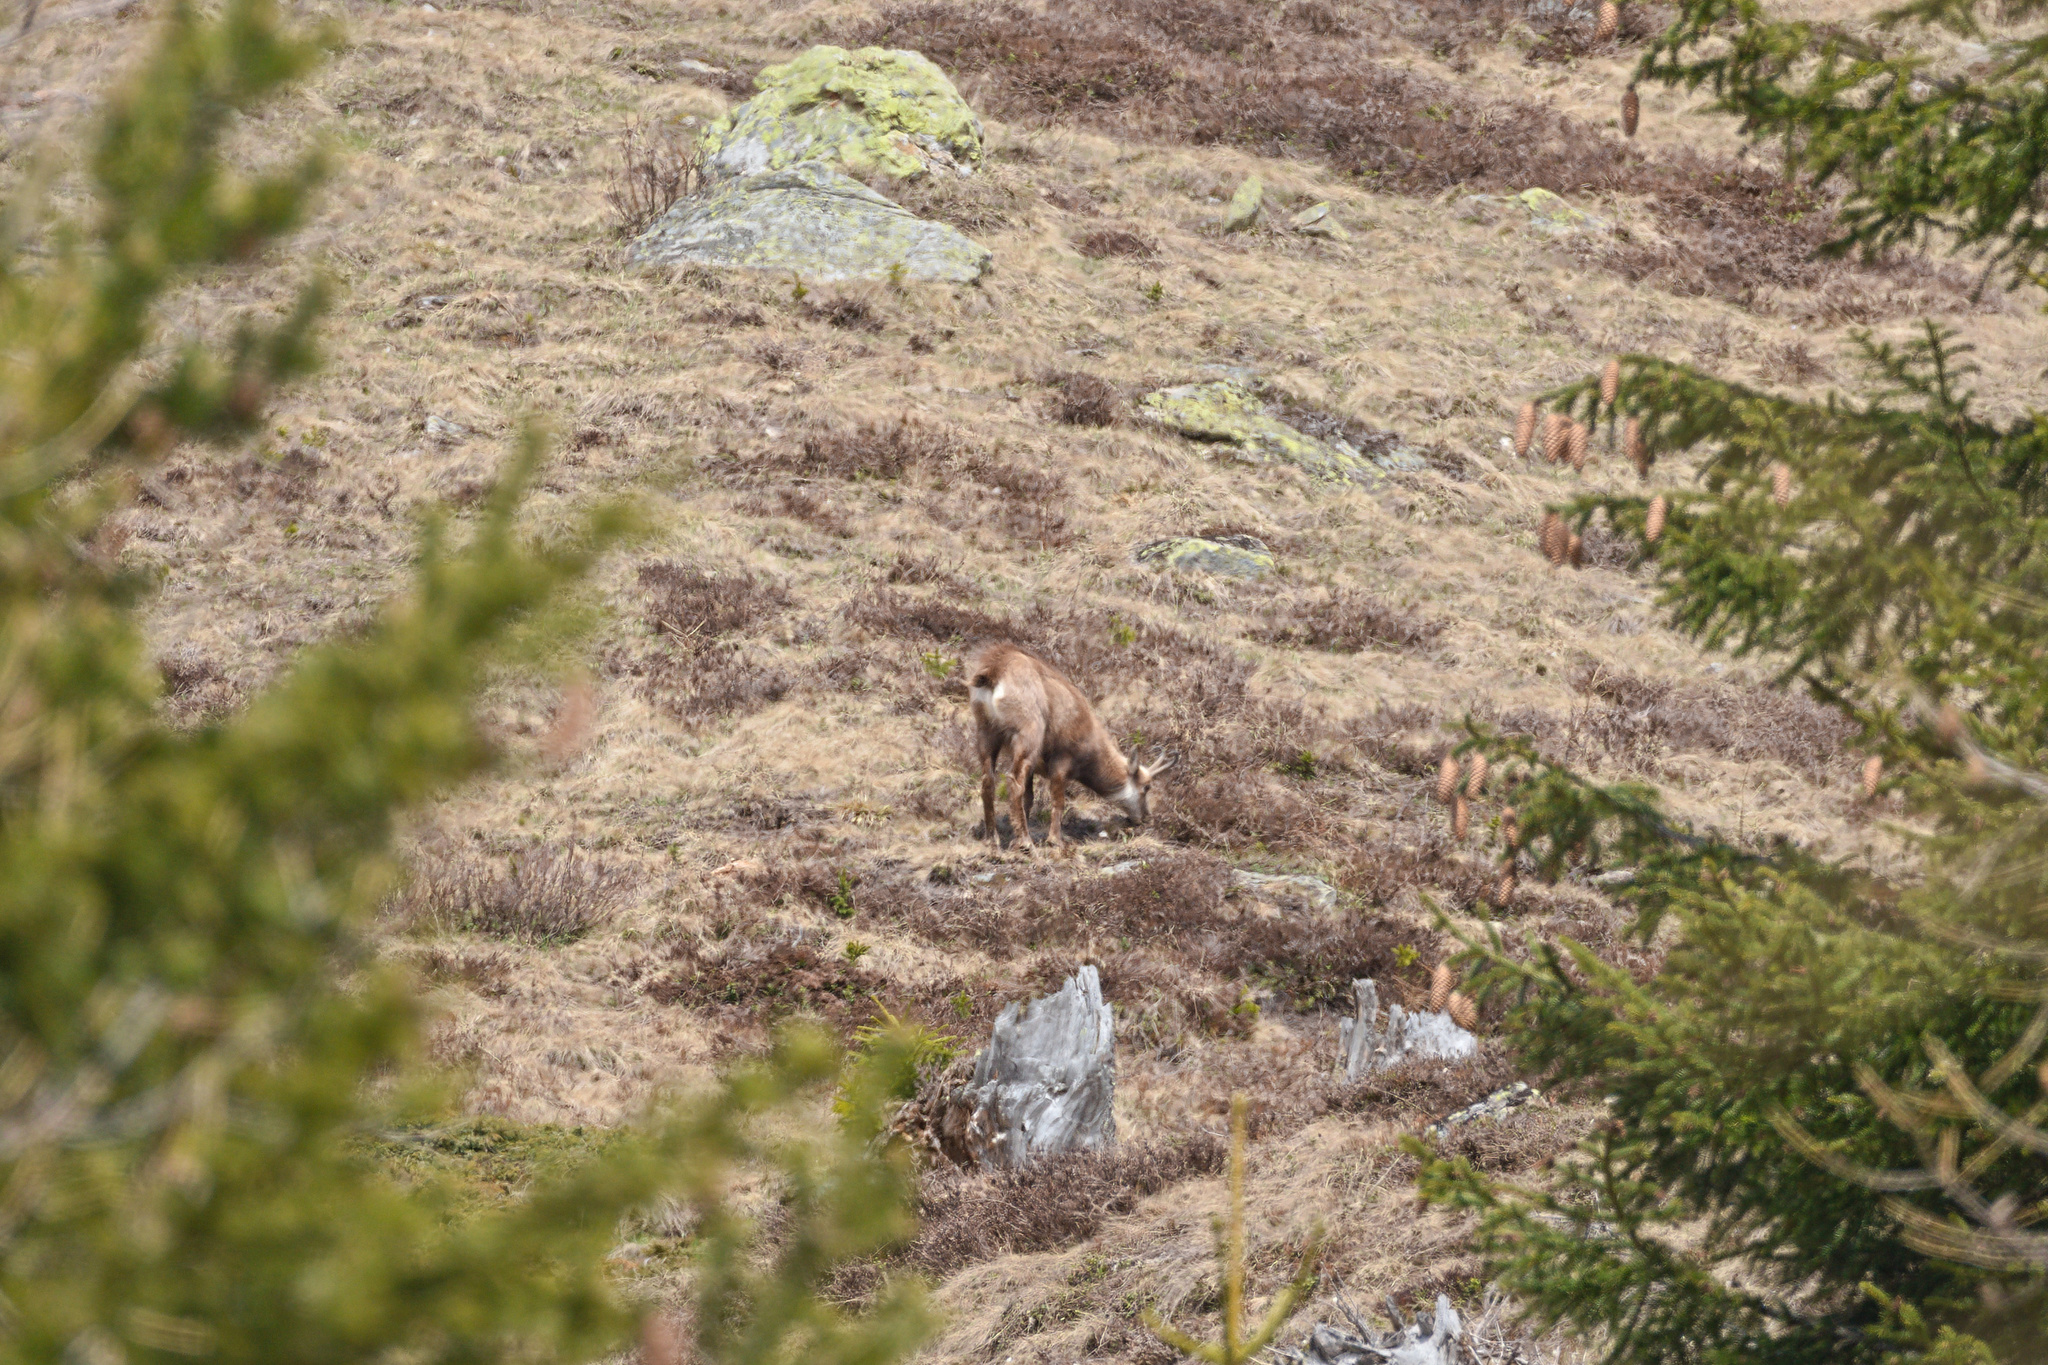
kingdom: Animalia
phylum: Chordata
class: Mammalia
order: Artiodactyla
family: Bovidae
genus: Rupicapra
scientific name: Rupicapra rupicapra
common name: Chamois
